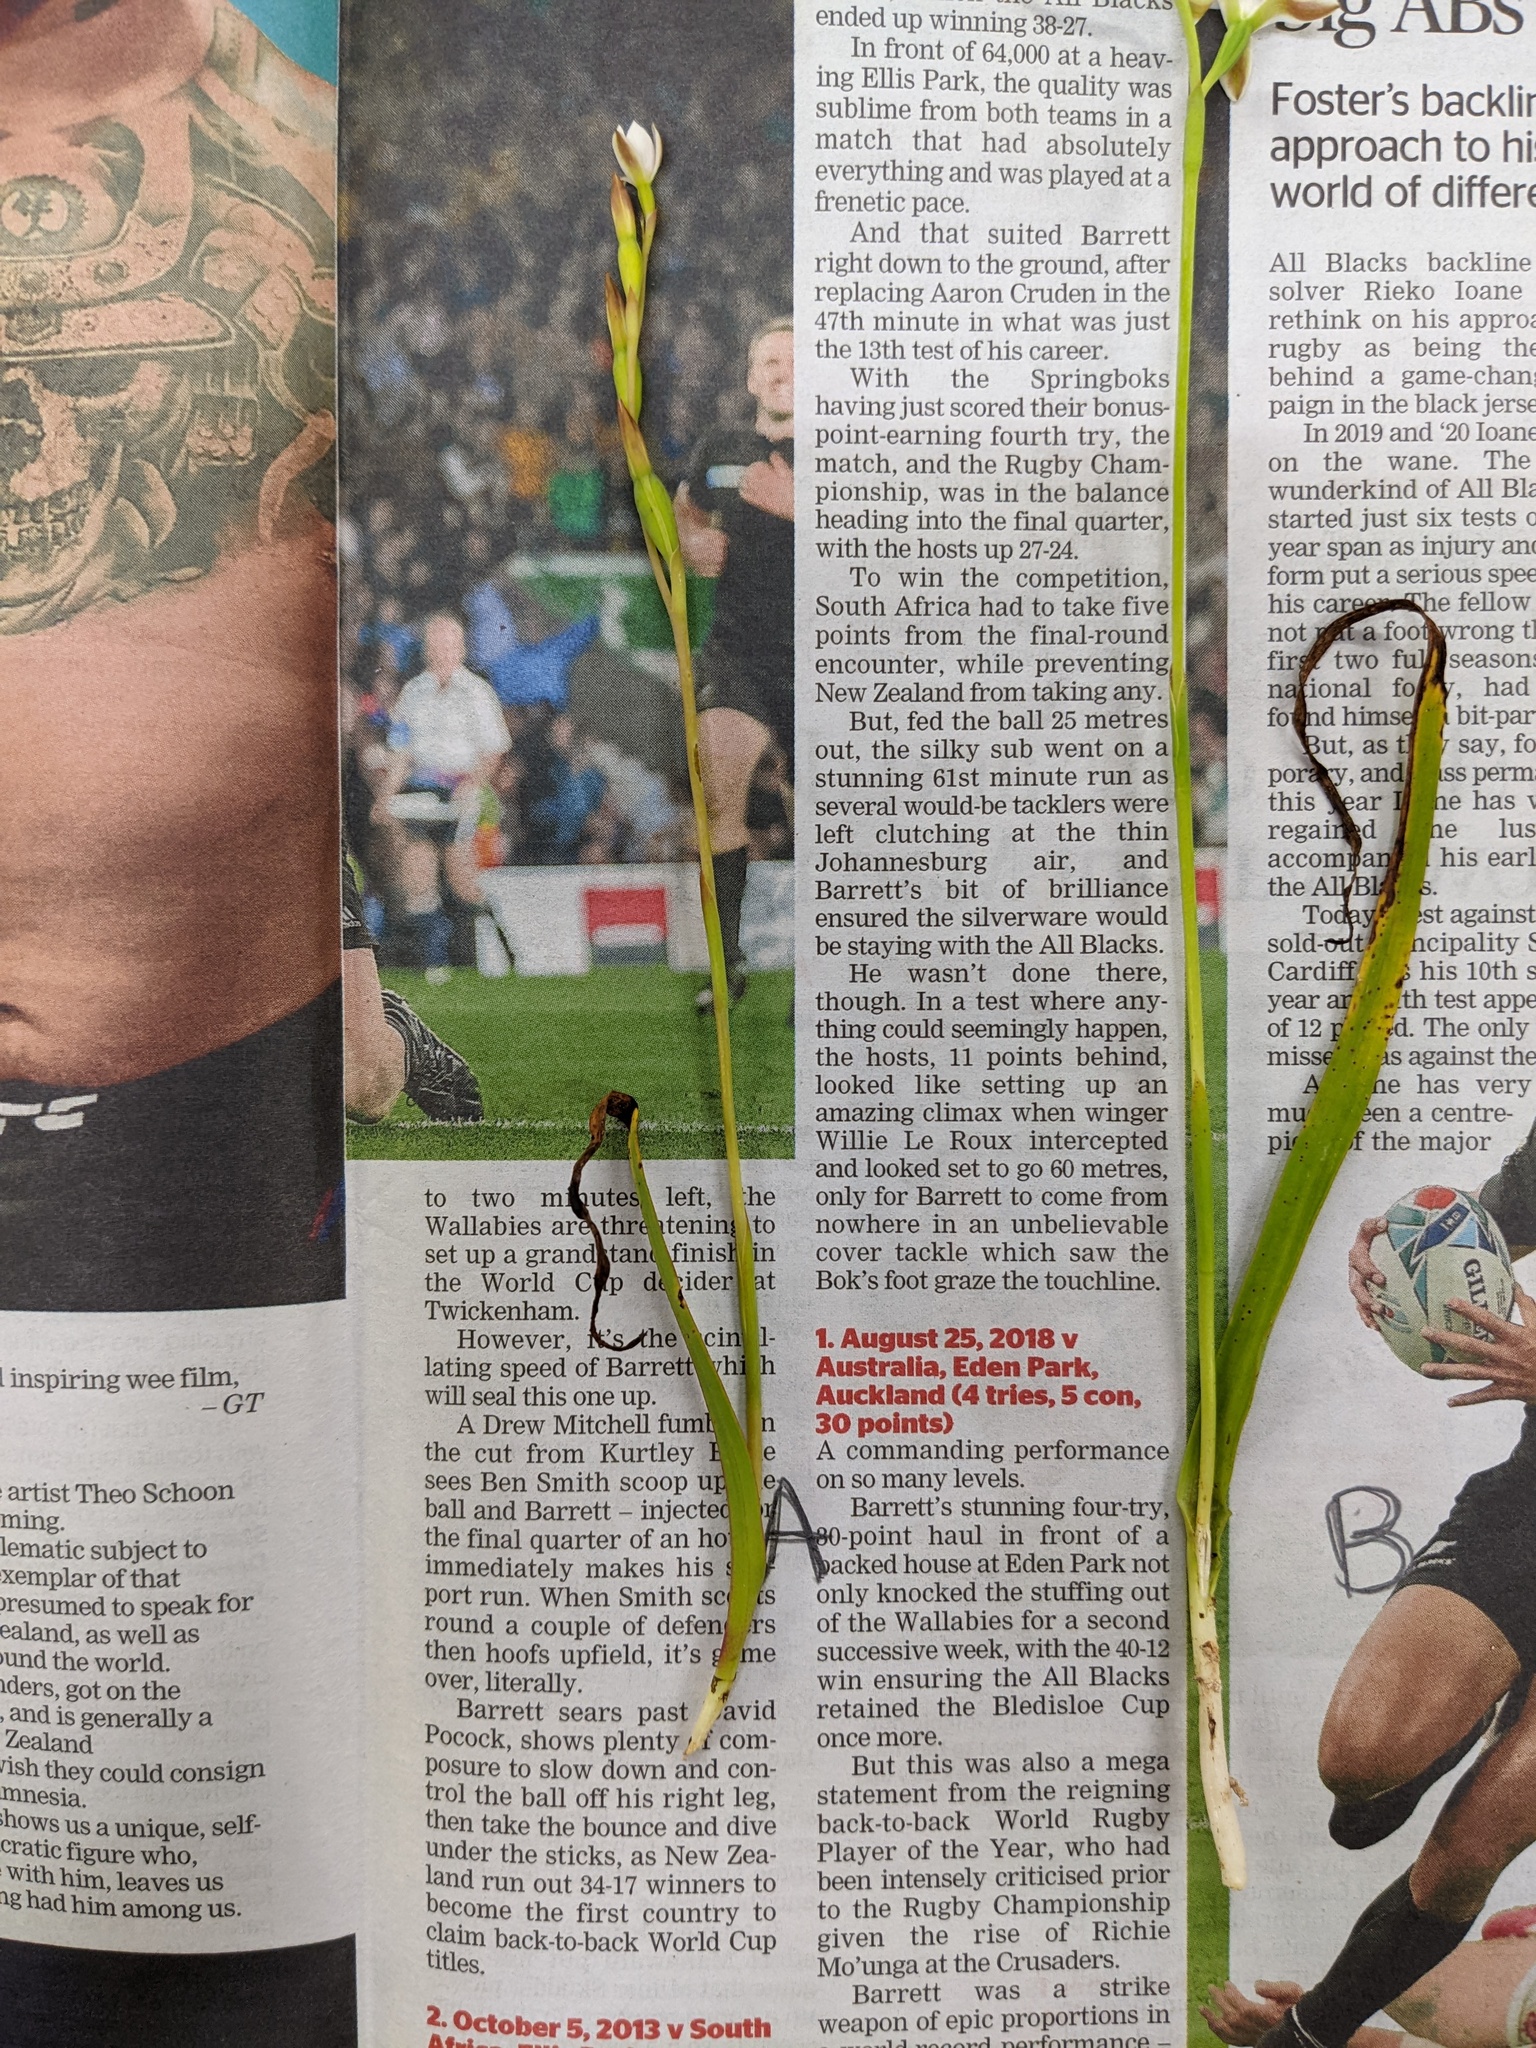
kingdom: Plantae
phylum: Tracheophyta
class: Liliopsida
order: Asparagales
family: Orchidaceae
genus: Thelymitra
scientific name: Thelymitra longifolia
